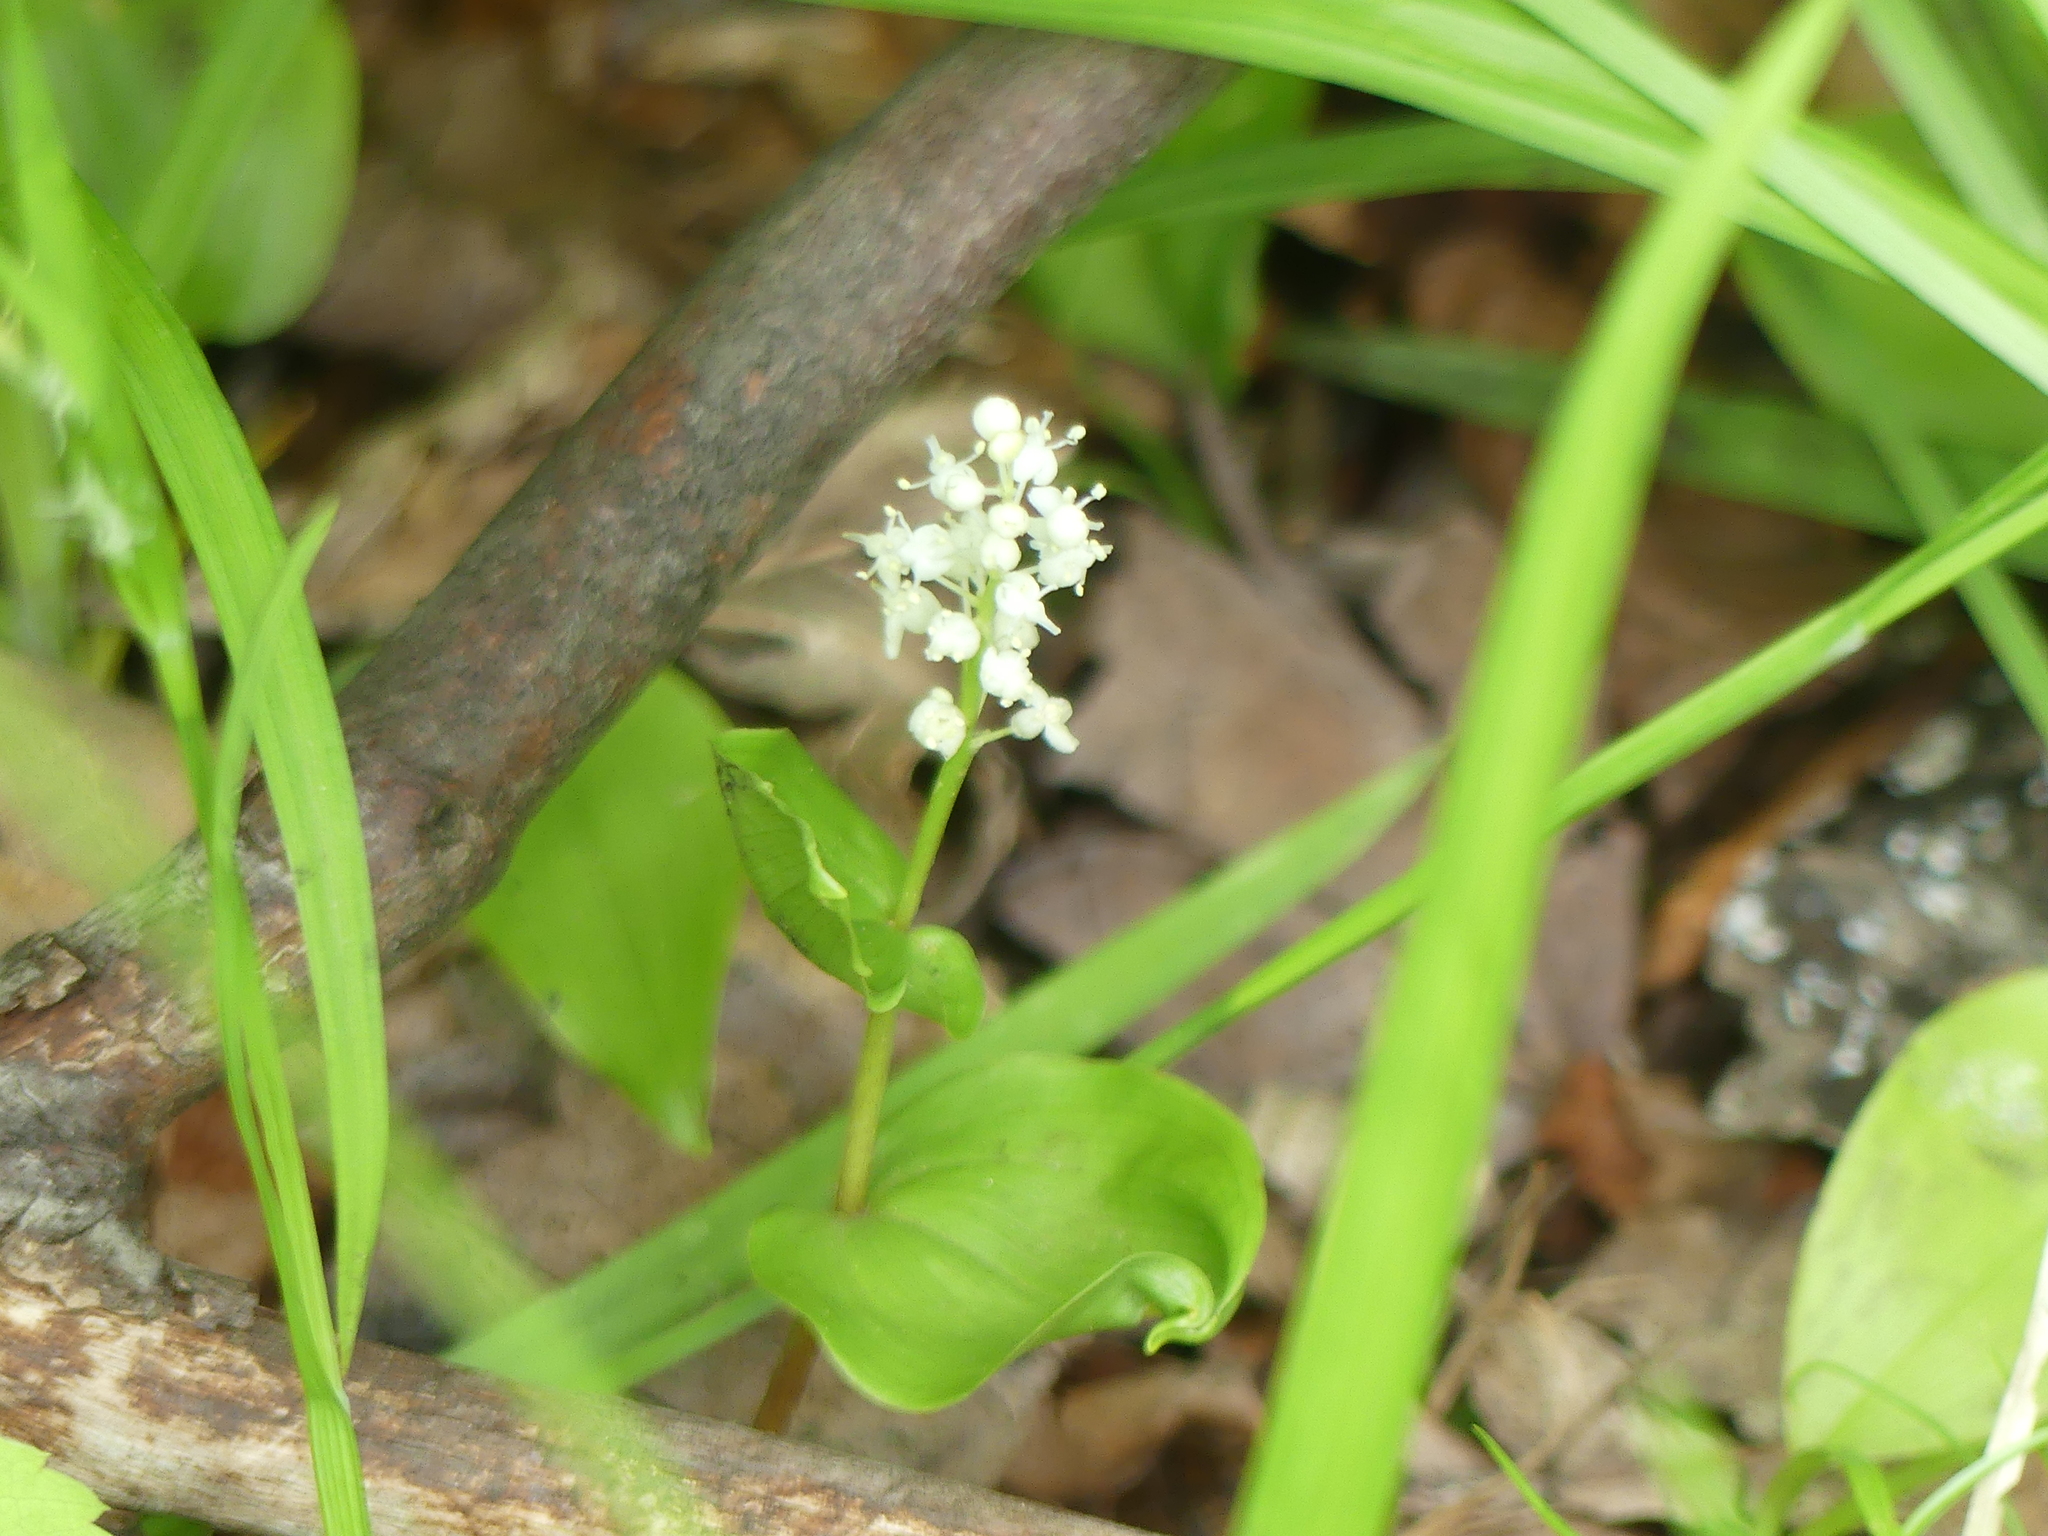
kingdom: Plantae
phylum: Tracheophyta
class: Liliopsida
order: Asparagales
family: Asparagaceae
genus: Maianthemum
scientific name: Maianthemum canadense
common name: False lily-of-the-valley
